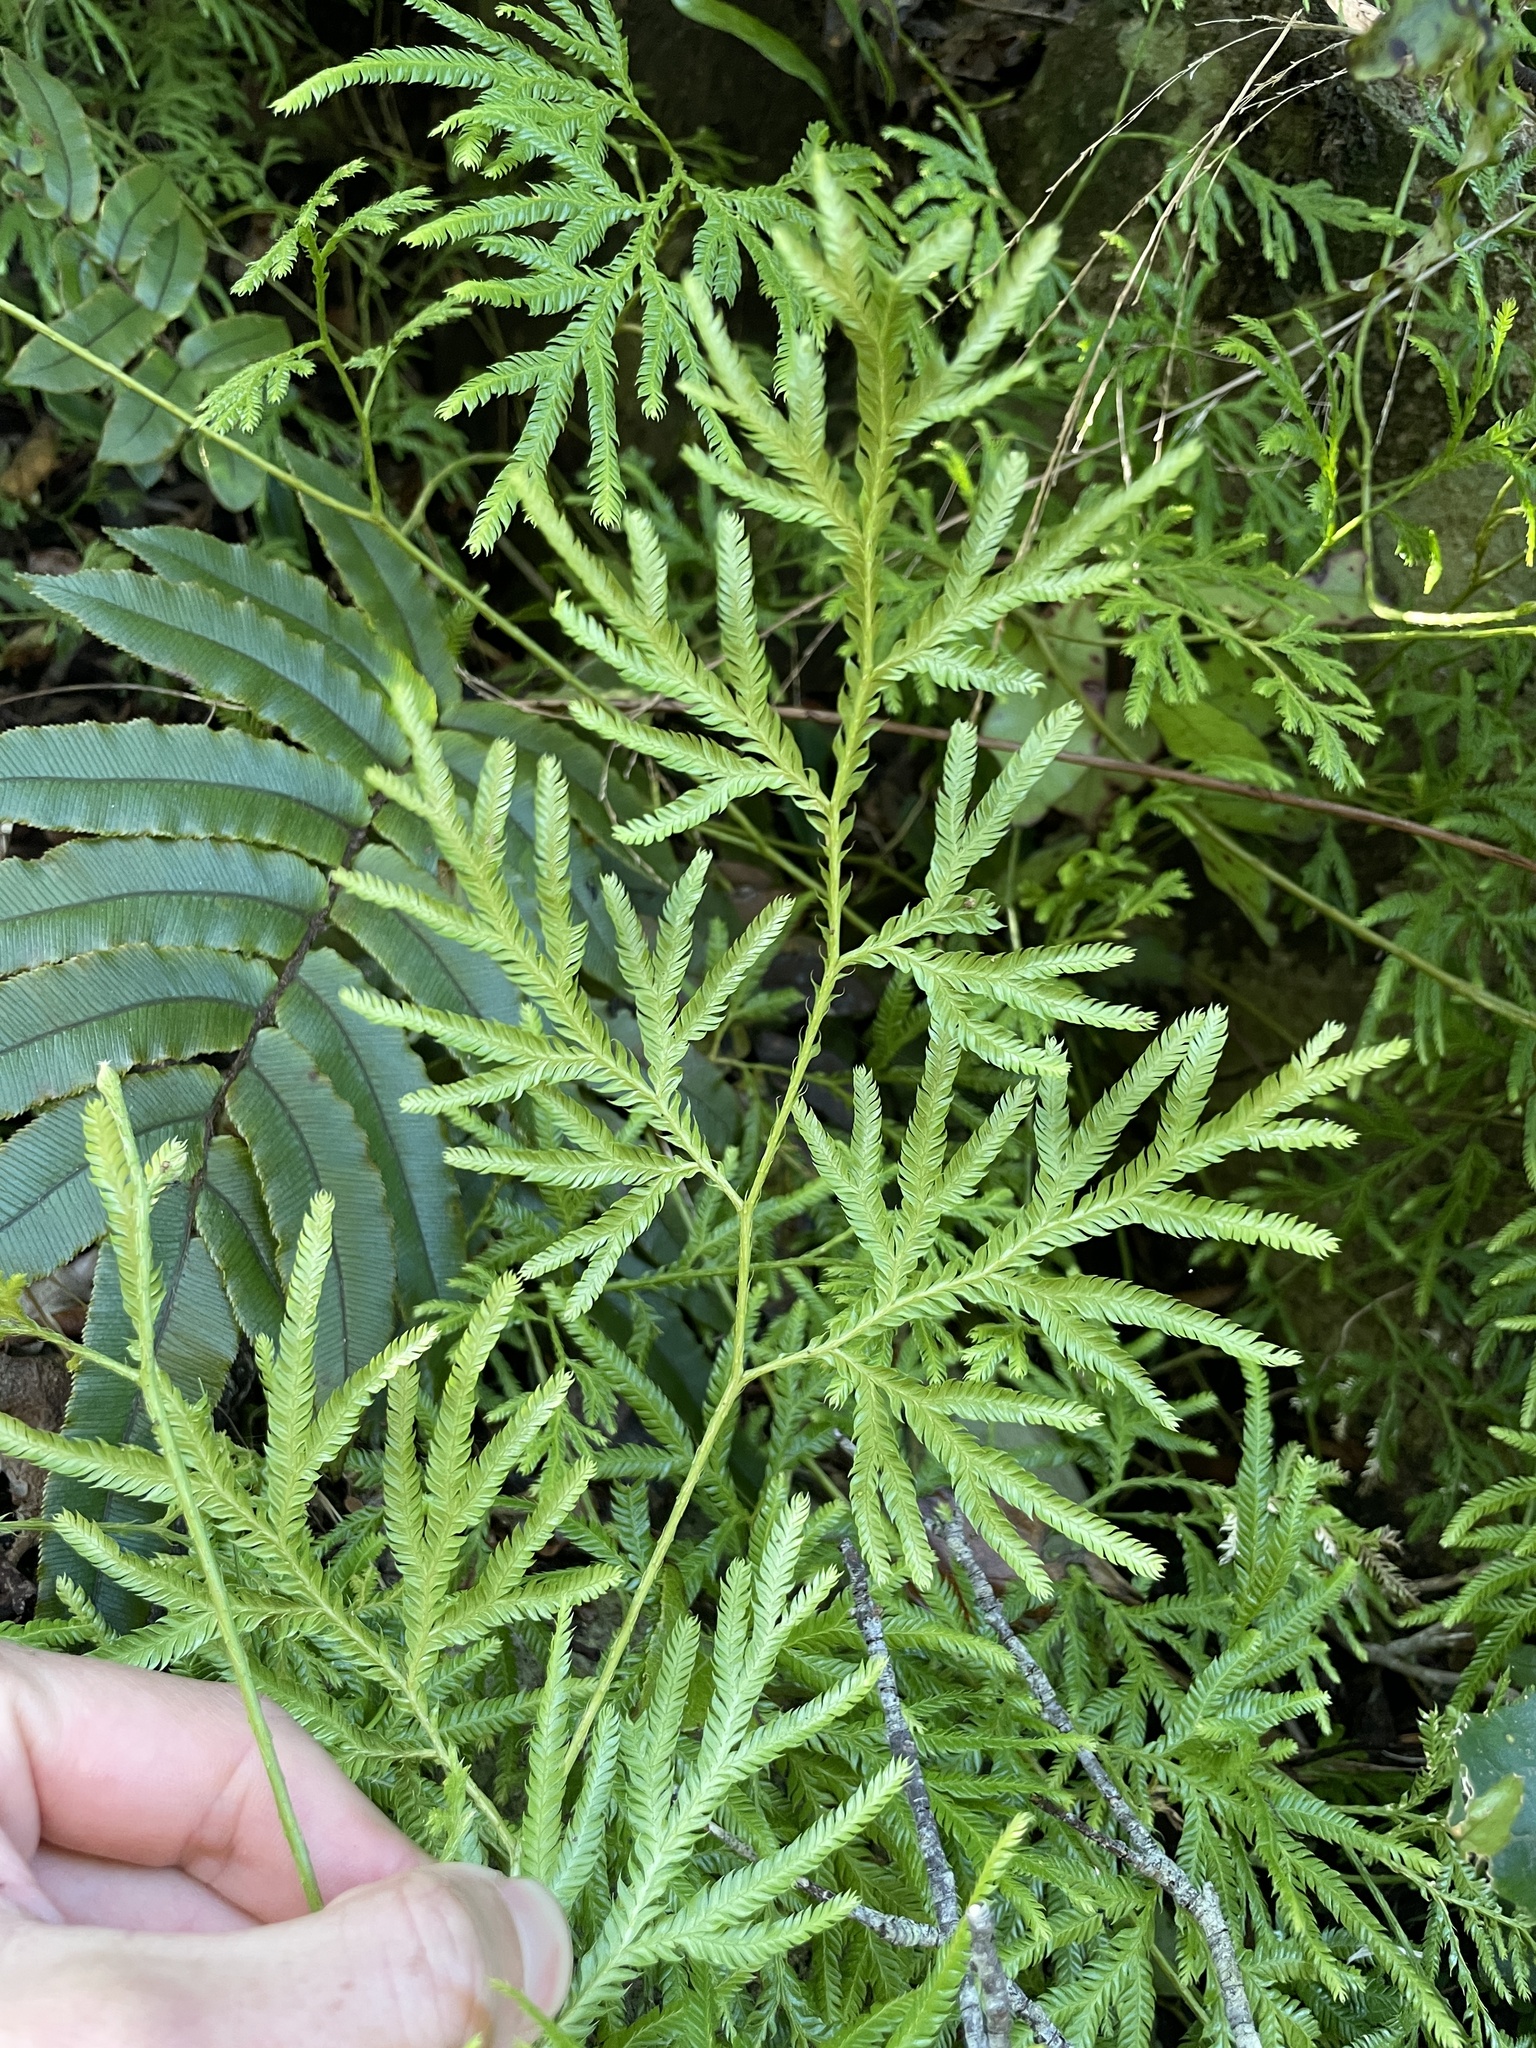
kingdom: Plantae
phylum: Tracheophyta
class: Lycopodiopsida
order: Lycopodiales
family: Lycopodiaceae
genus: Lycopodium
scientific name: Lycopodium volubile
